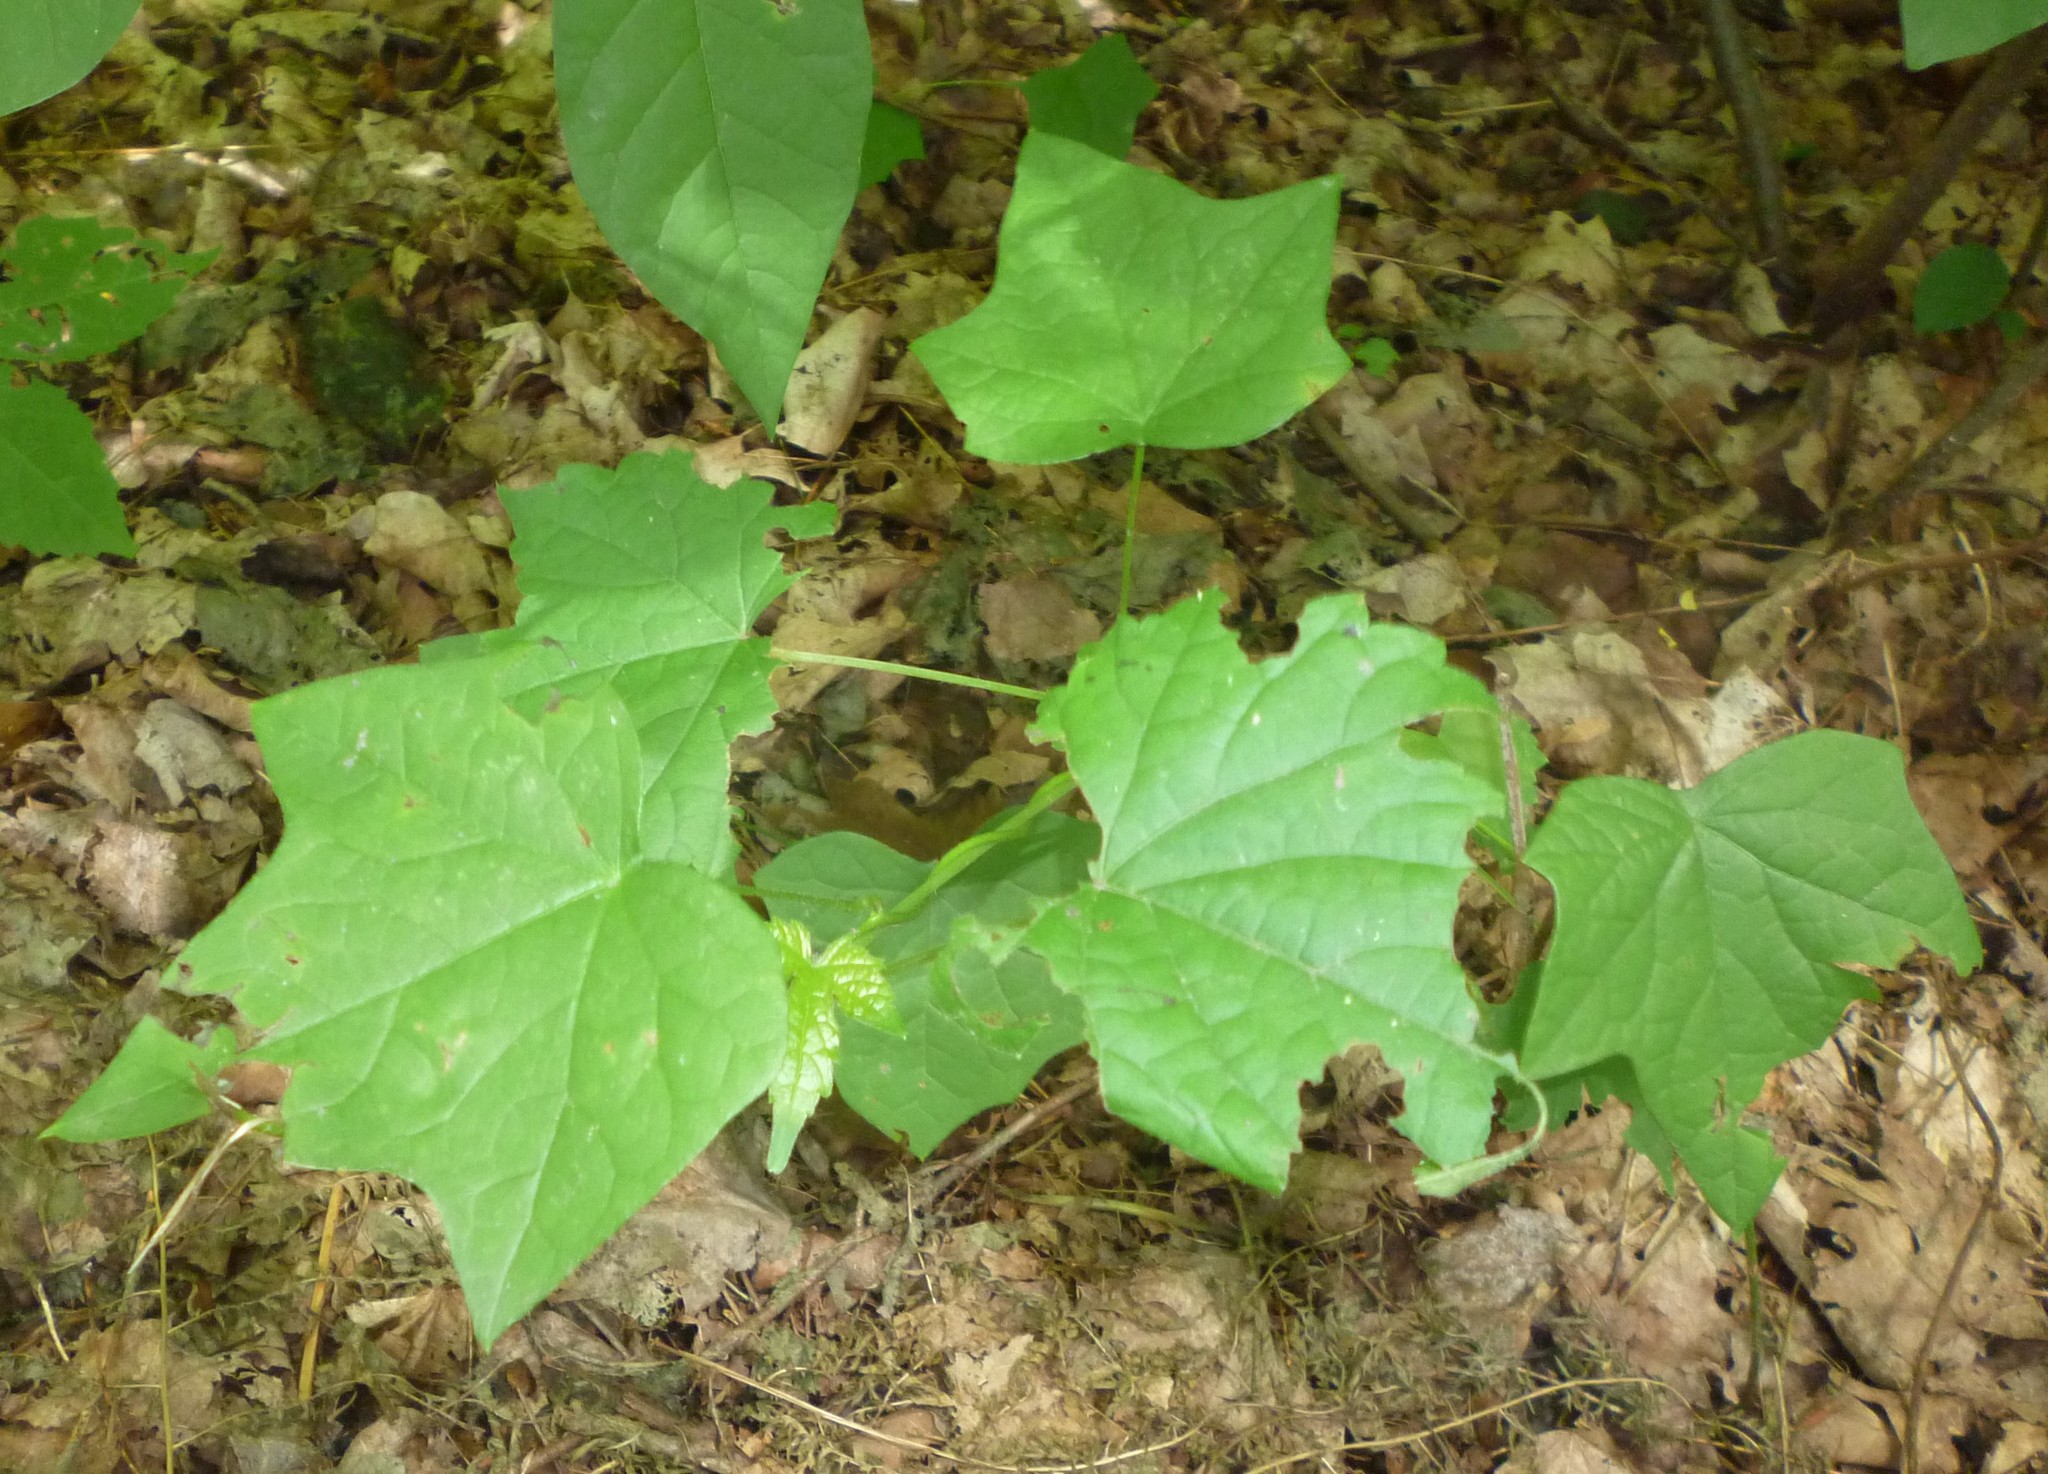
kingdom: Plantae
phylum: Tracheophyta
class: Magnoliopsida
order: Ranunculales
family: Menispermaceae
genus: Menispermum
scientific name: Menispermum canadense
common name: Moonseed
